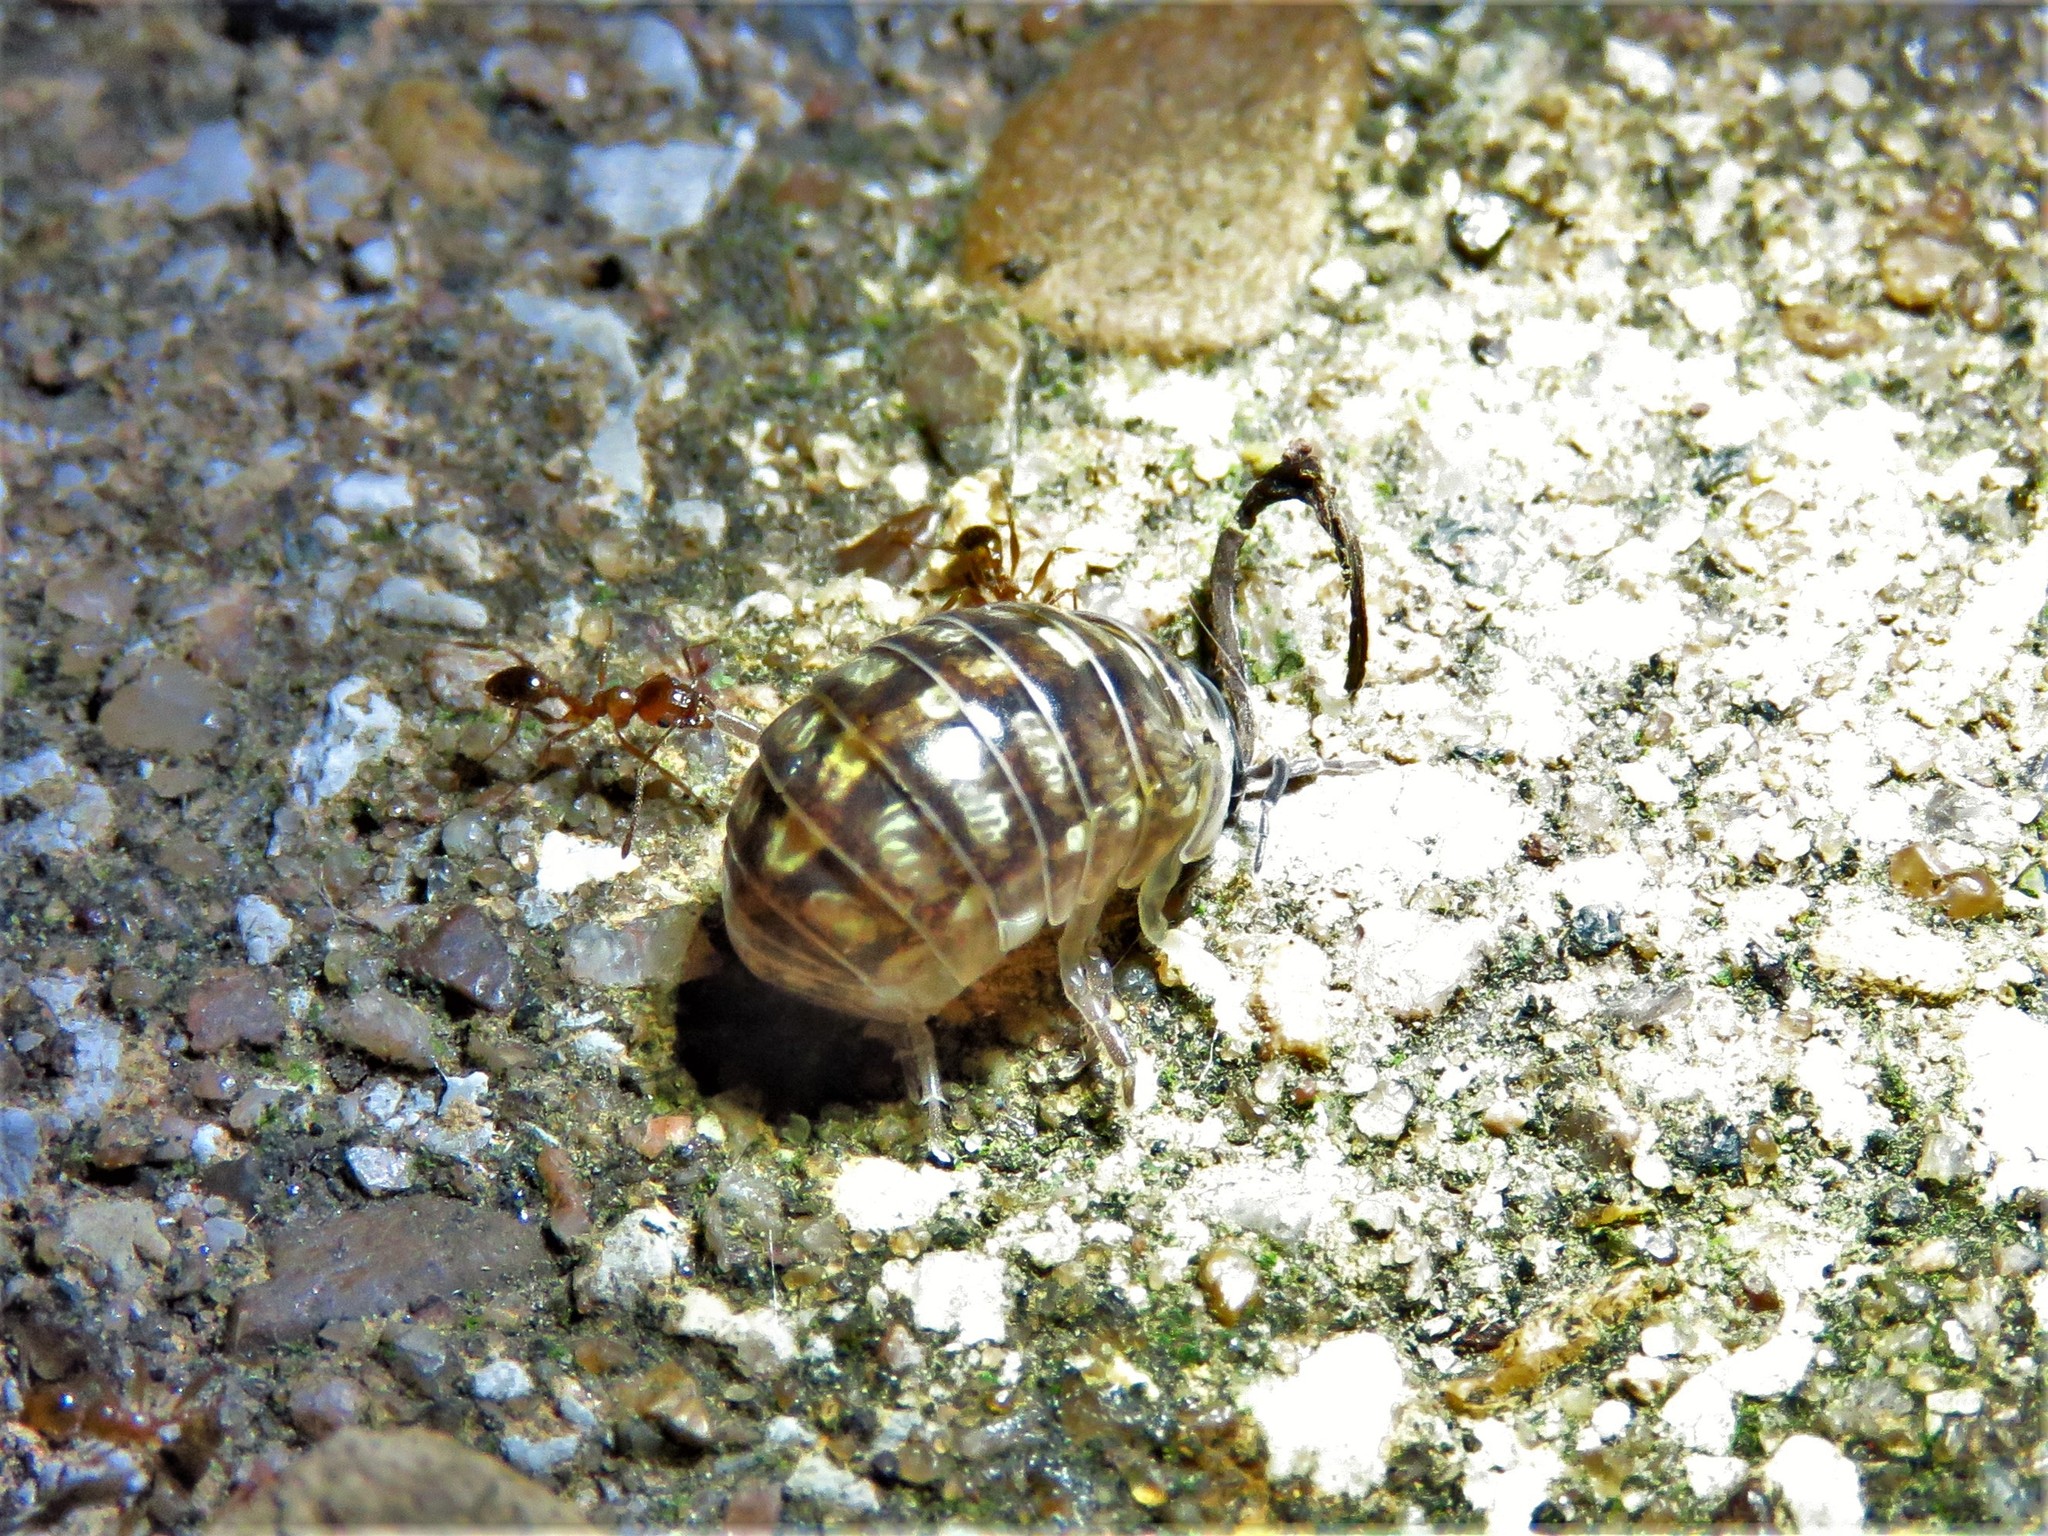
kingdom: Animalia
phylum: Arthropoda
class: Malacostraca
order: Isopoda
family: Armadillidiidae
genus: Armadillidium
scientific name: Armadillidium vulgare
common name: Common pill woodlouse
